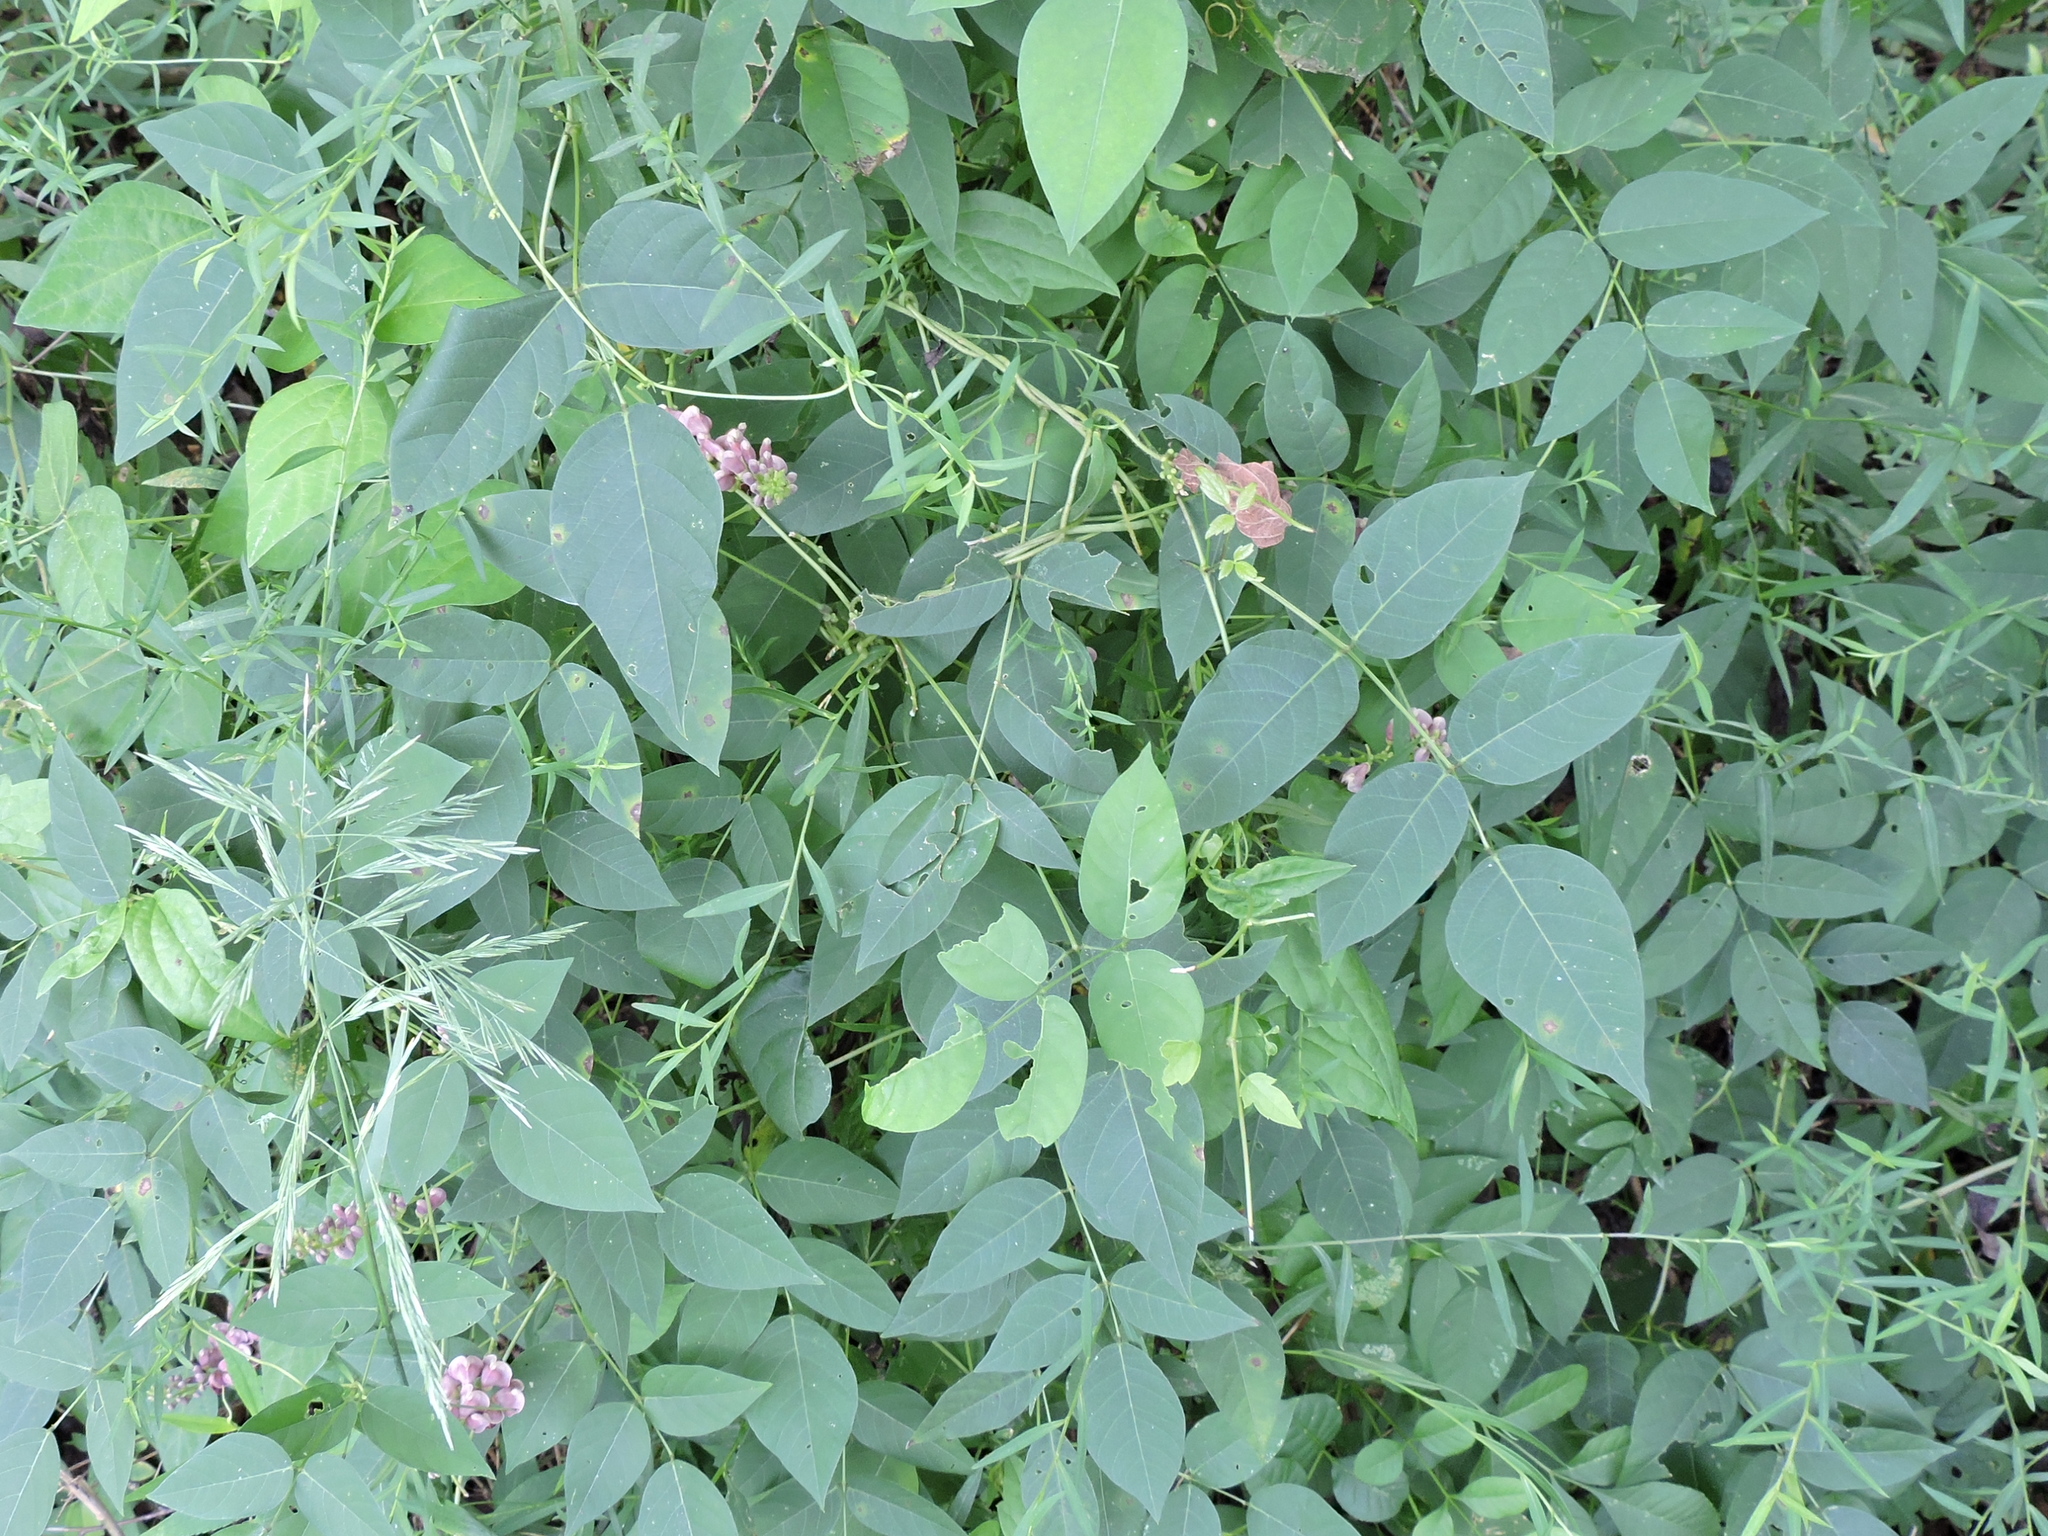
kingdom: Plantae
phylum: Tracheophyta
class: Magnoliopsida
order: Fabales
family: Fabaceae
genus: Apios
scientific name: Apios americana
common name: American potato-bean
